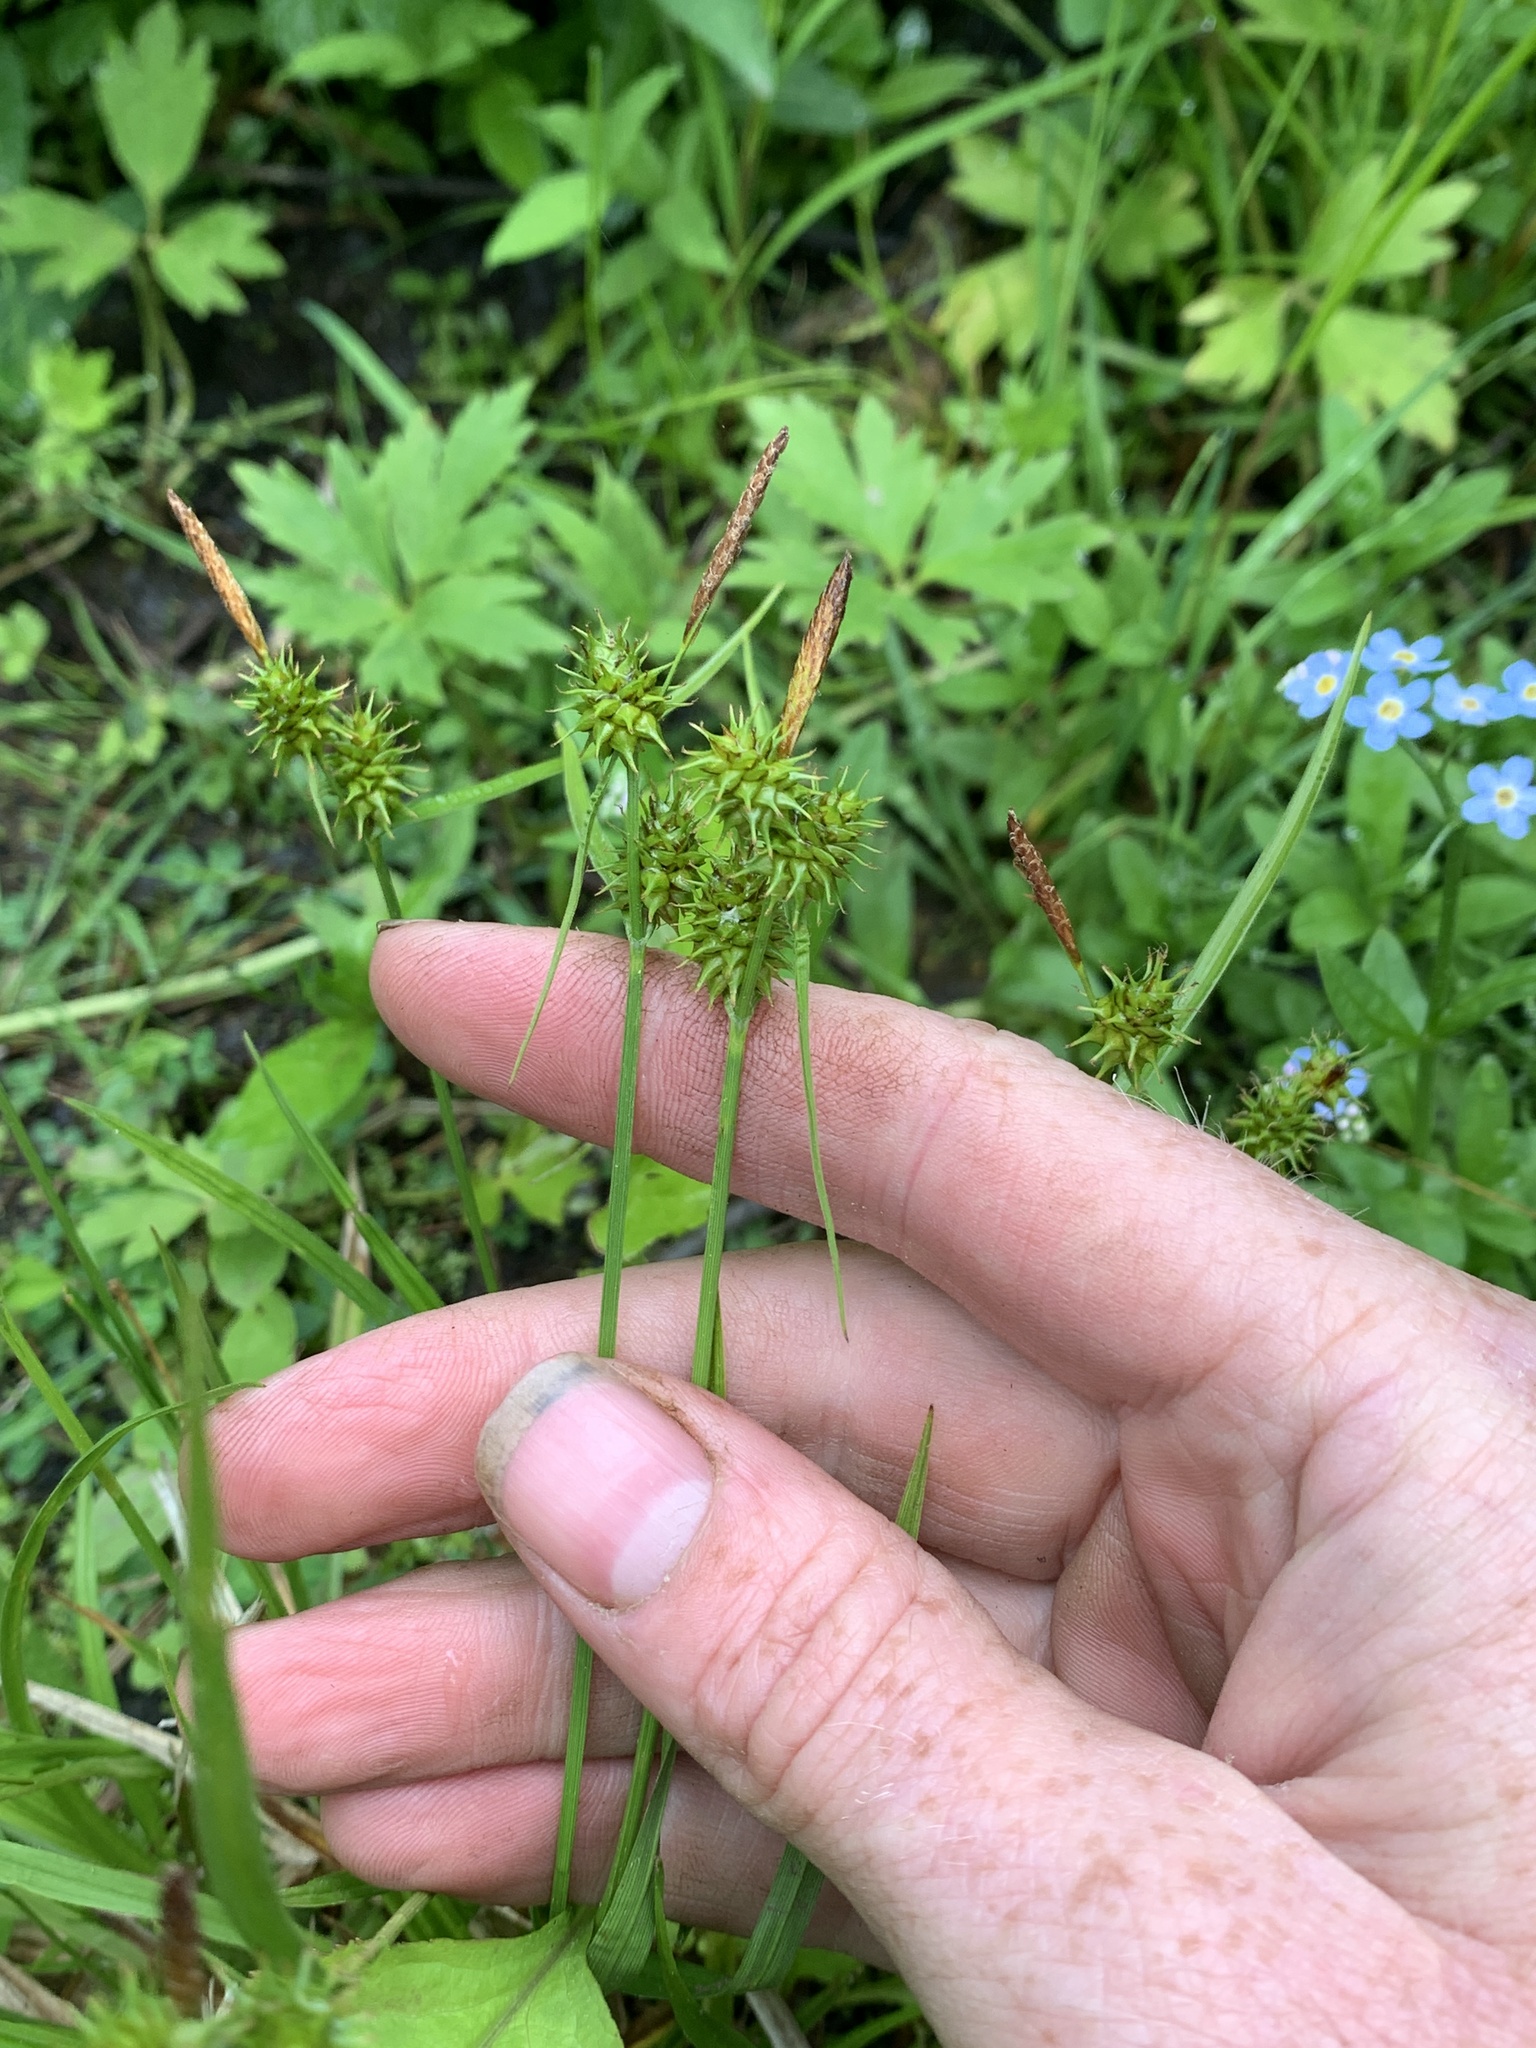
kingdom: Plantae
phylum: Tracheophyta
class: Liliopsida
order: Poales
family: Cyperaceae
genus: Carex
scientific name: Carex flava
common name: Large yellow-sedge
